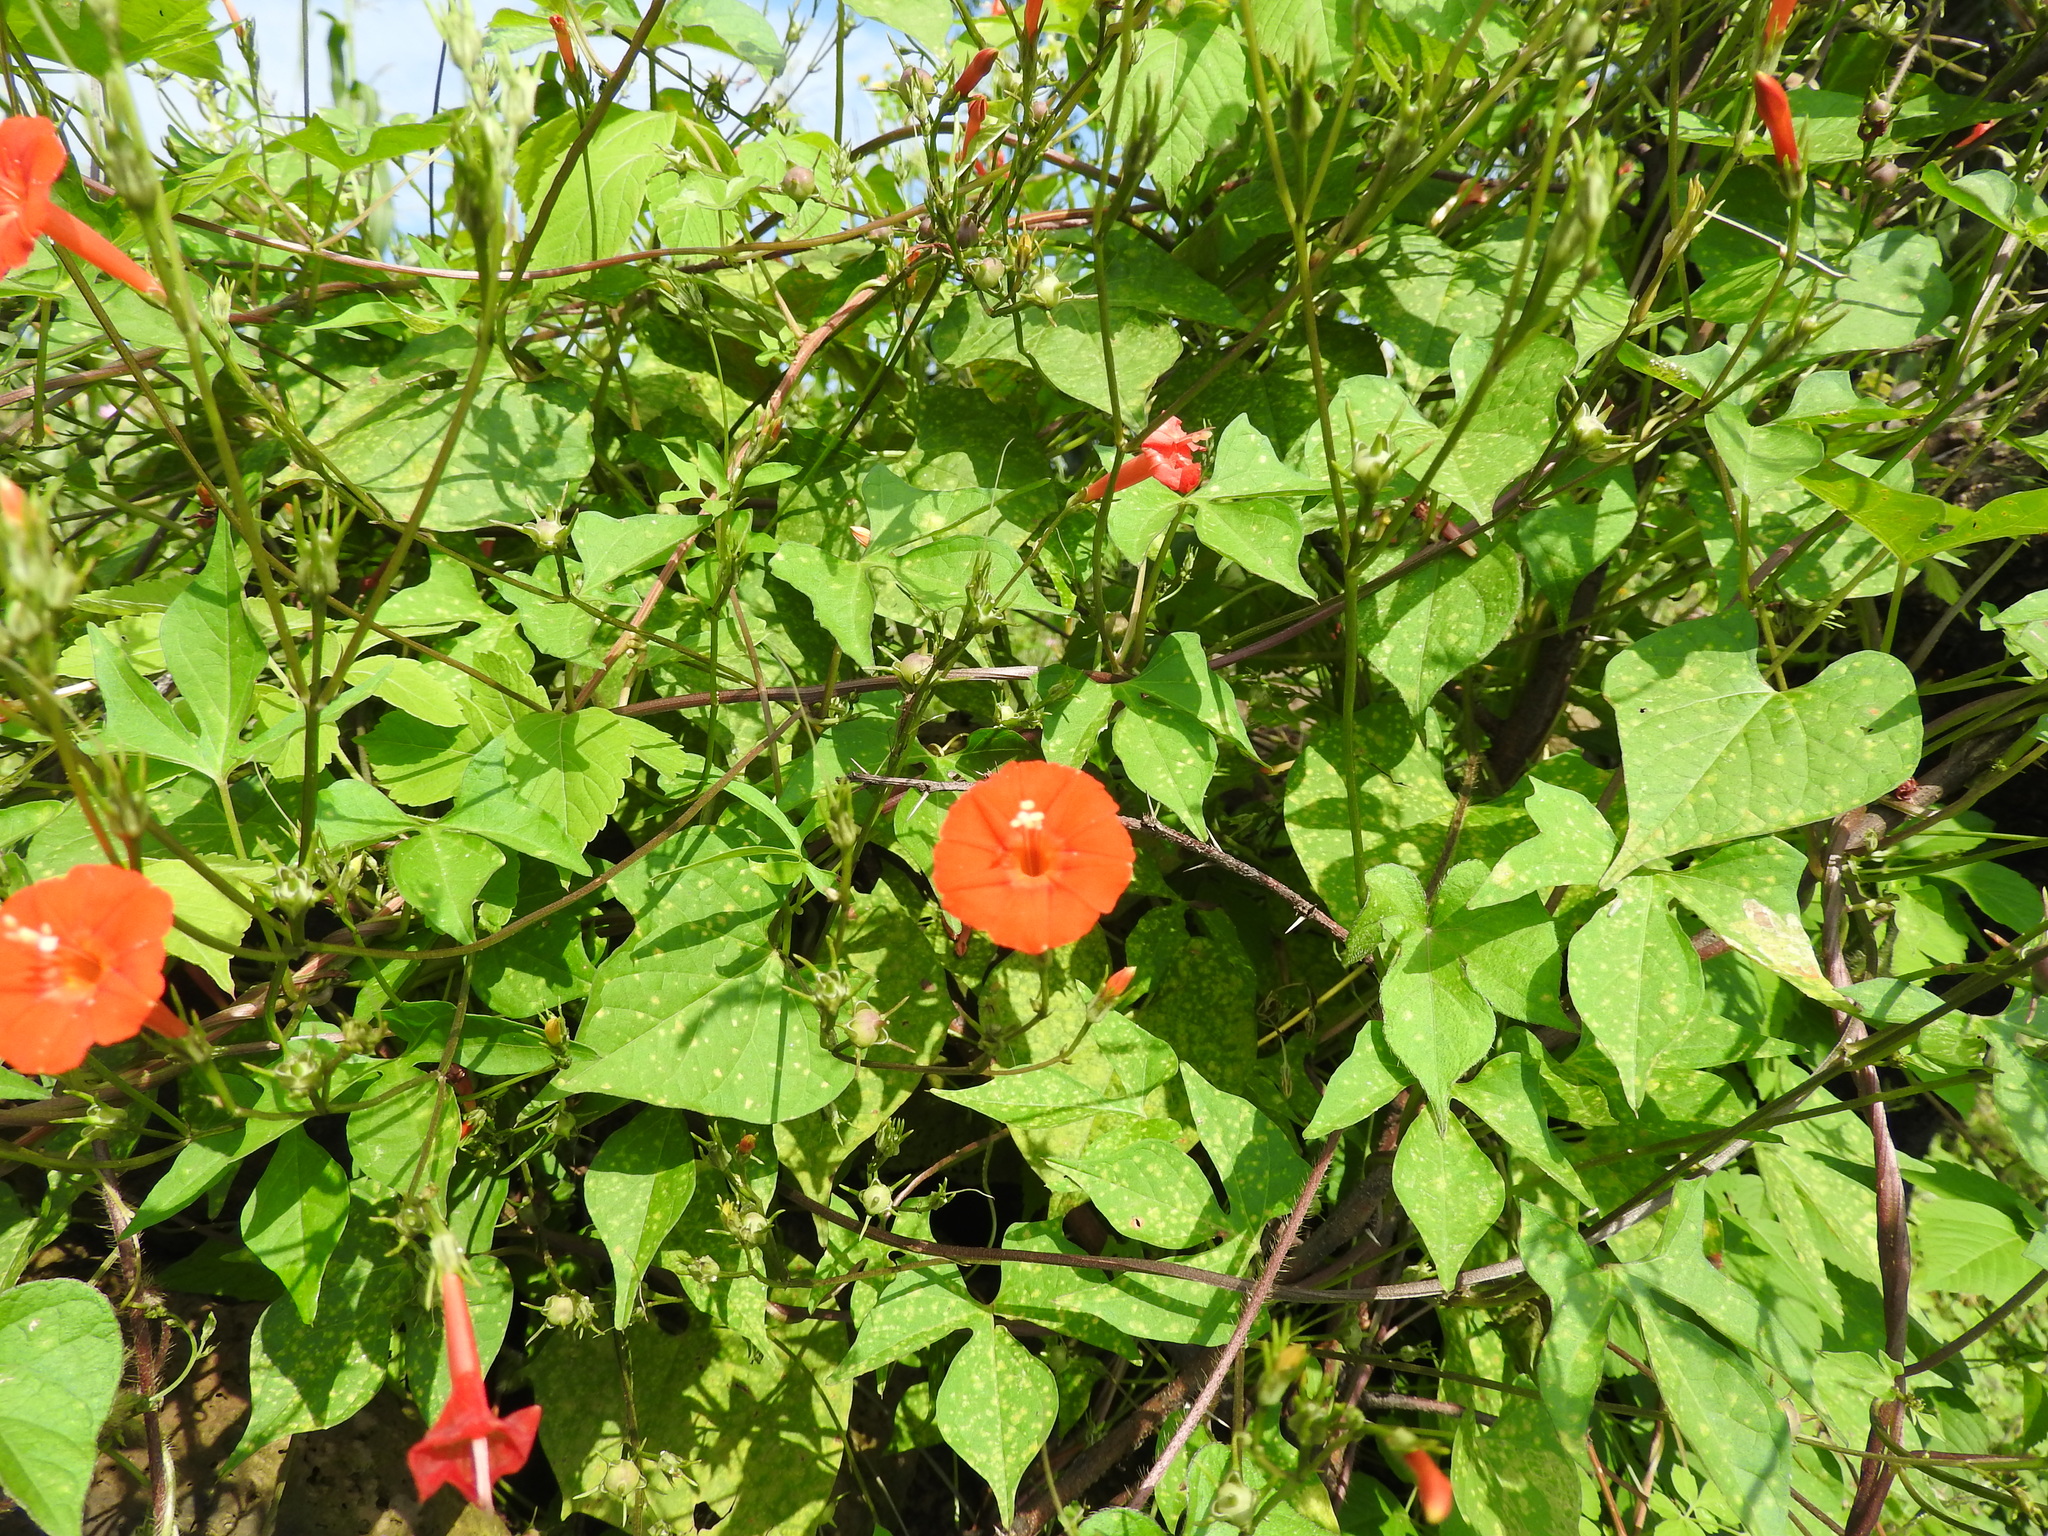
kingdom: Plantae
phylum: Tracheophyta
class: Magnoliopsida
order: Solanales
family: Convolvulaceae
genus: Ipomoea
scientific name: Ipomoea hederifolia
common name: Ivy-leaf morning-glory
